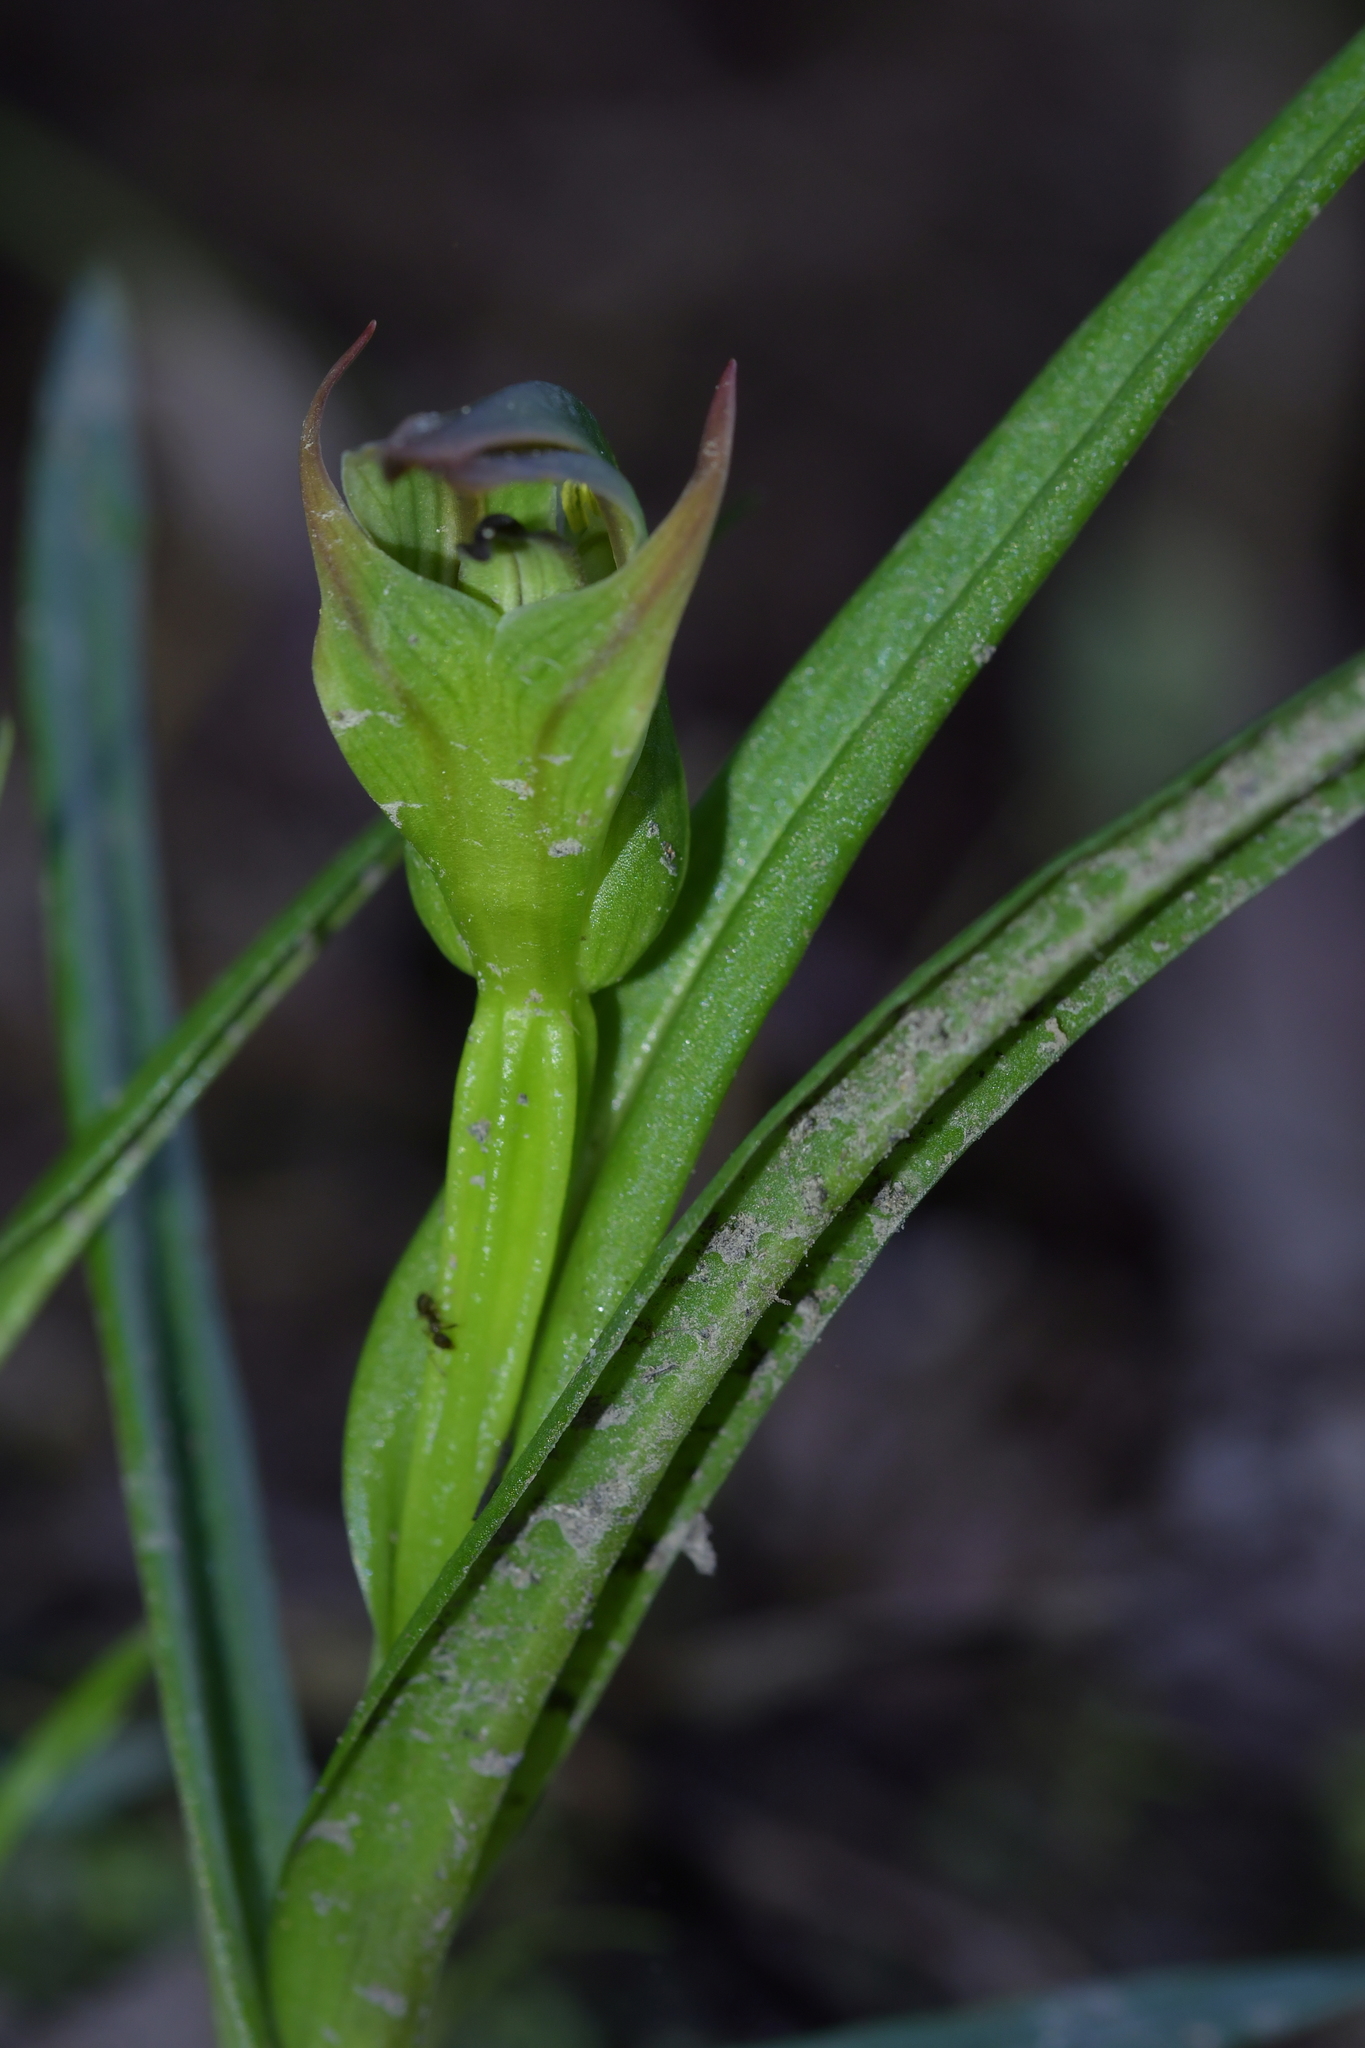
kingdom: Plantae
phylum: Tracheophyta
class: Liliopsida
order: Asparagales
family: Orchidaceae
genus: Pterostylis
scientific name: Pterostylis montana
